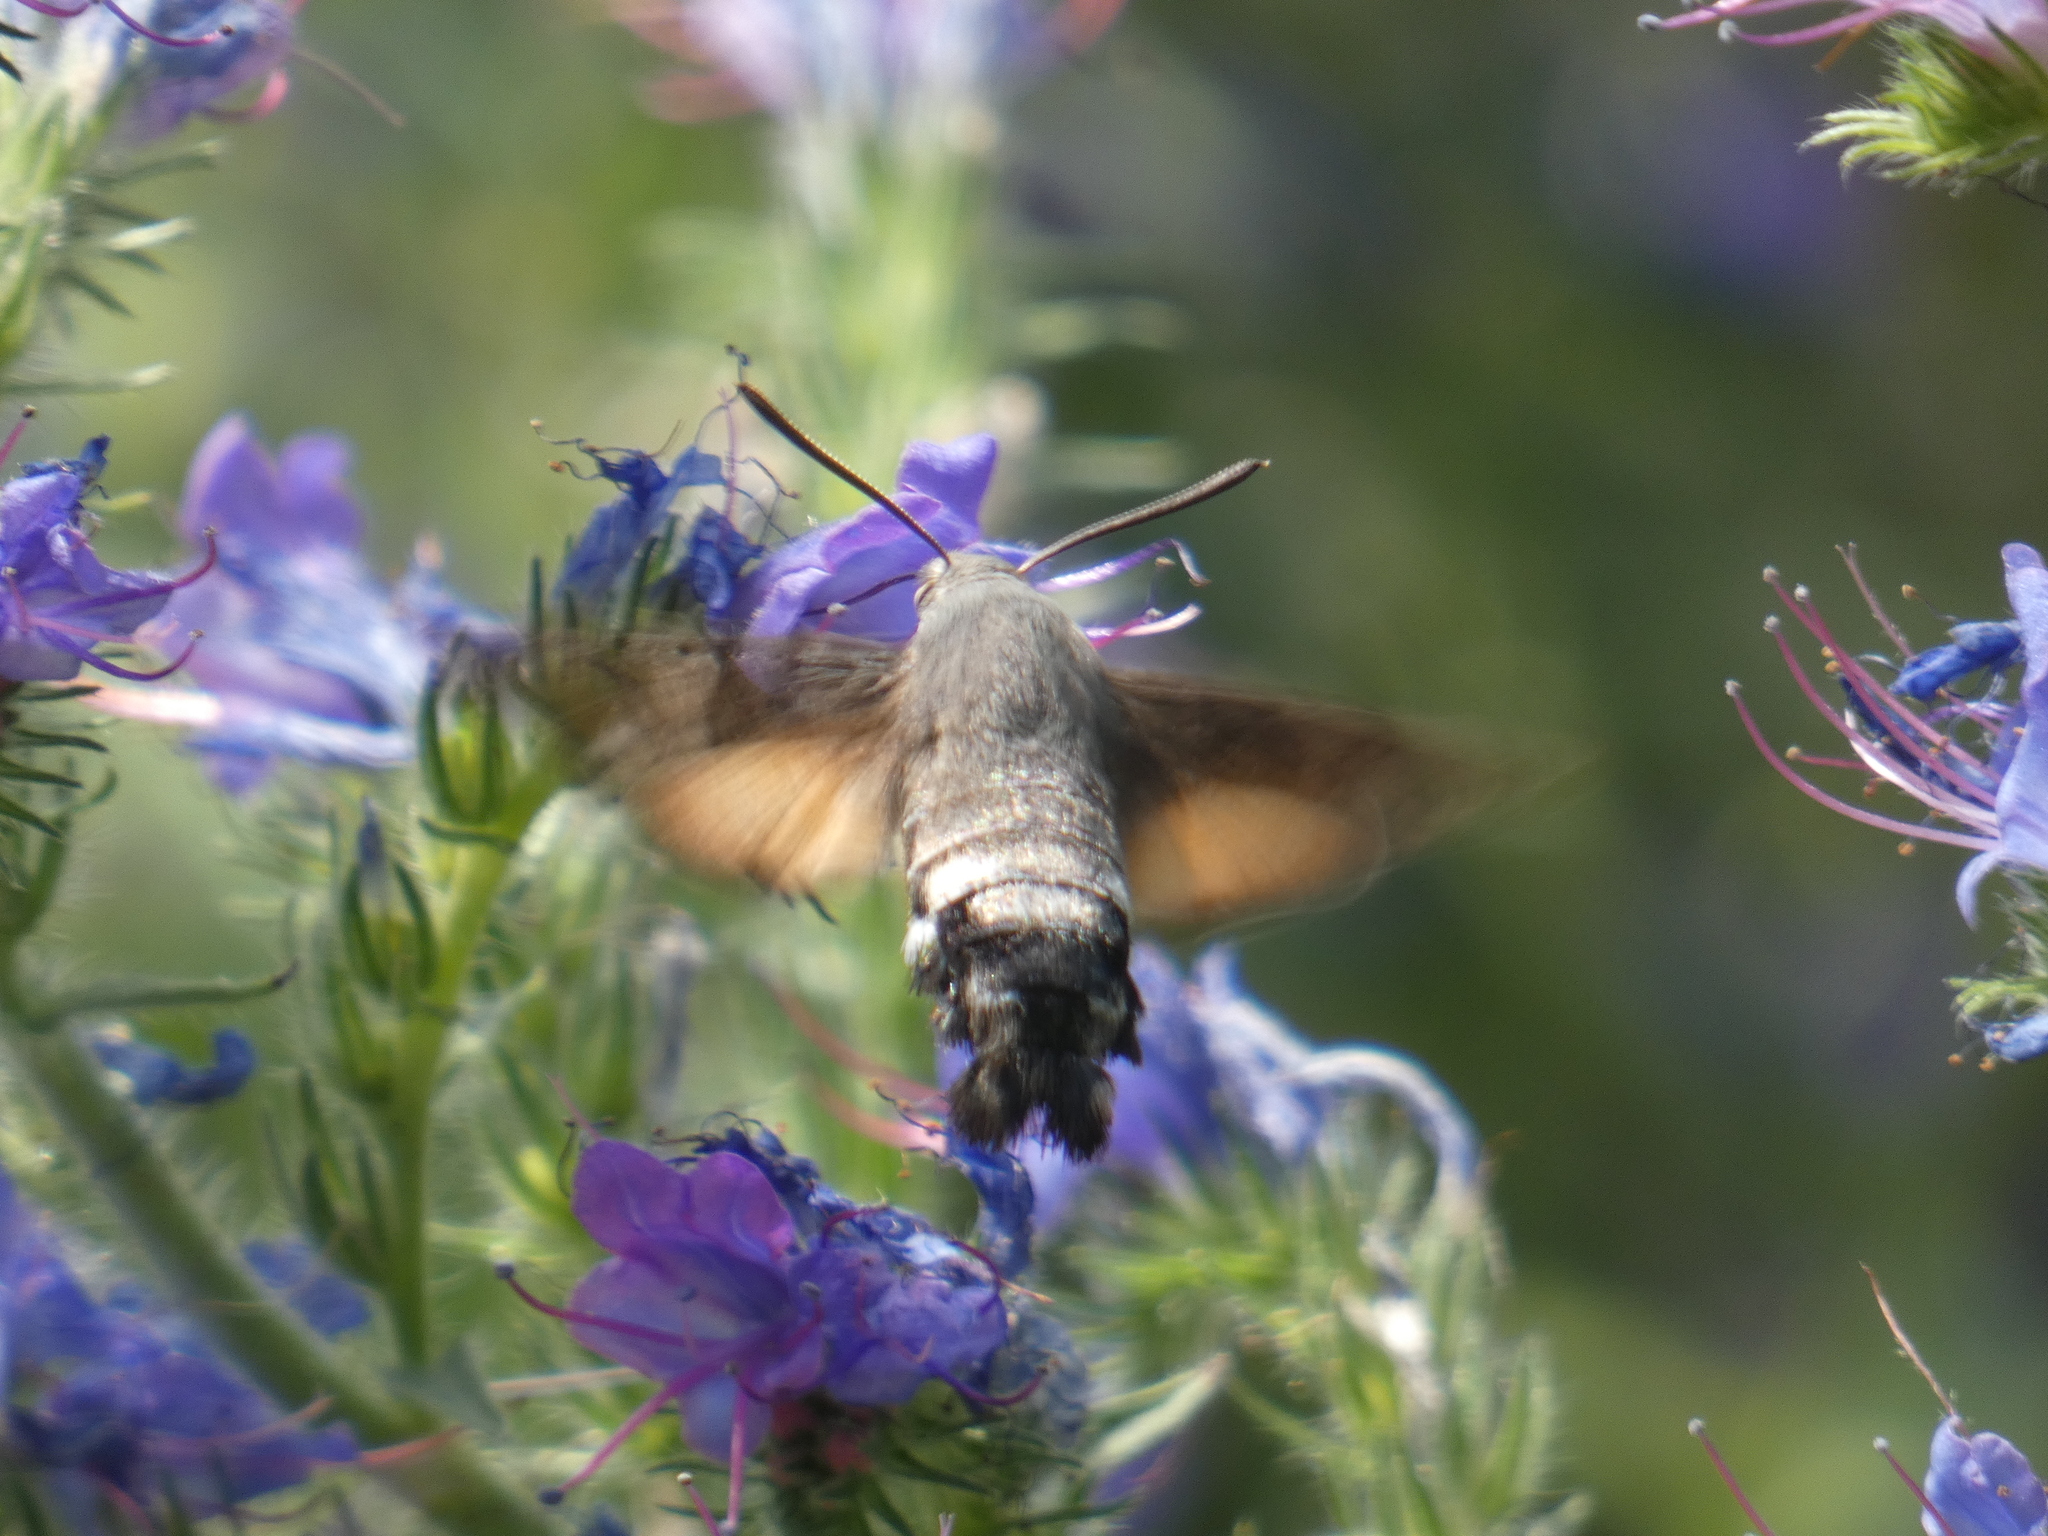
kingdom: Animalia
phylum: Arthropoda
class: Insecta
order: Lepidoptera
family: Sphingidae
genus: Macroglossum
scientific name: Macroglossum stellatarum
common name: Humming-bird hawk-moth
